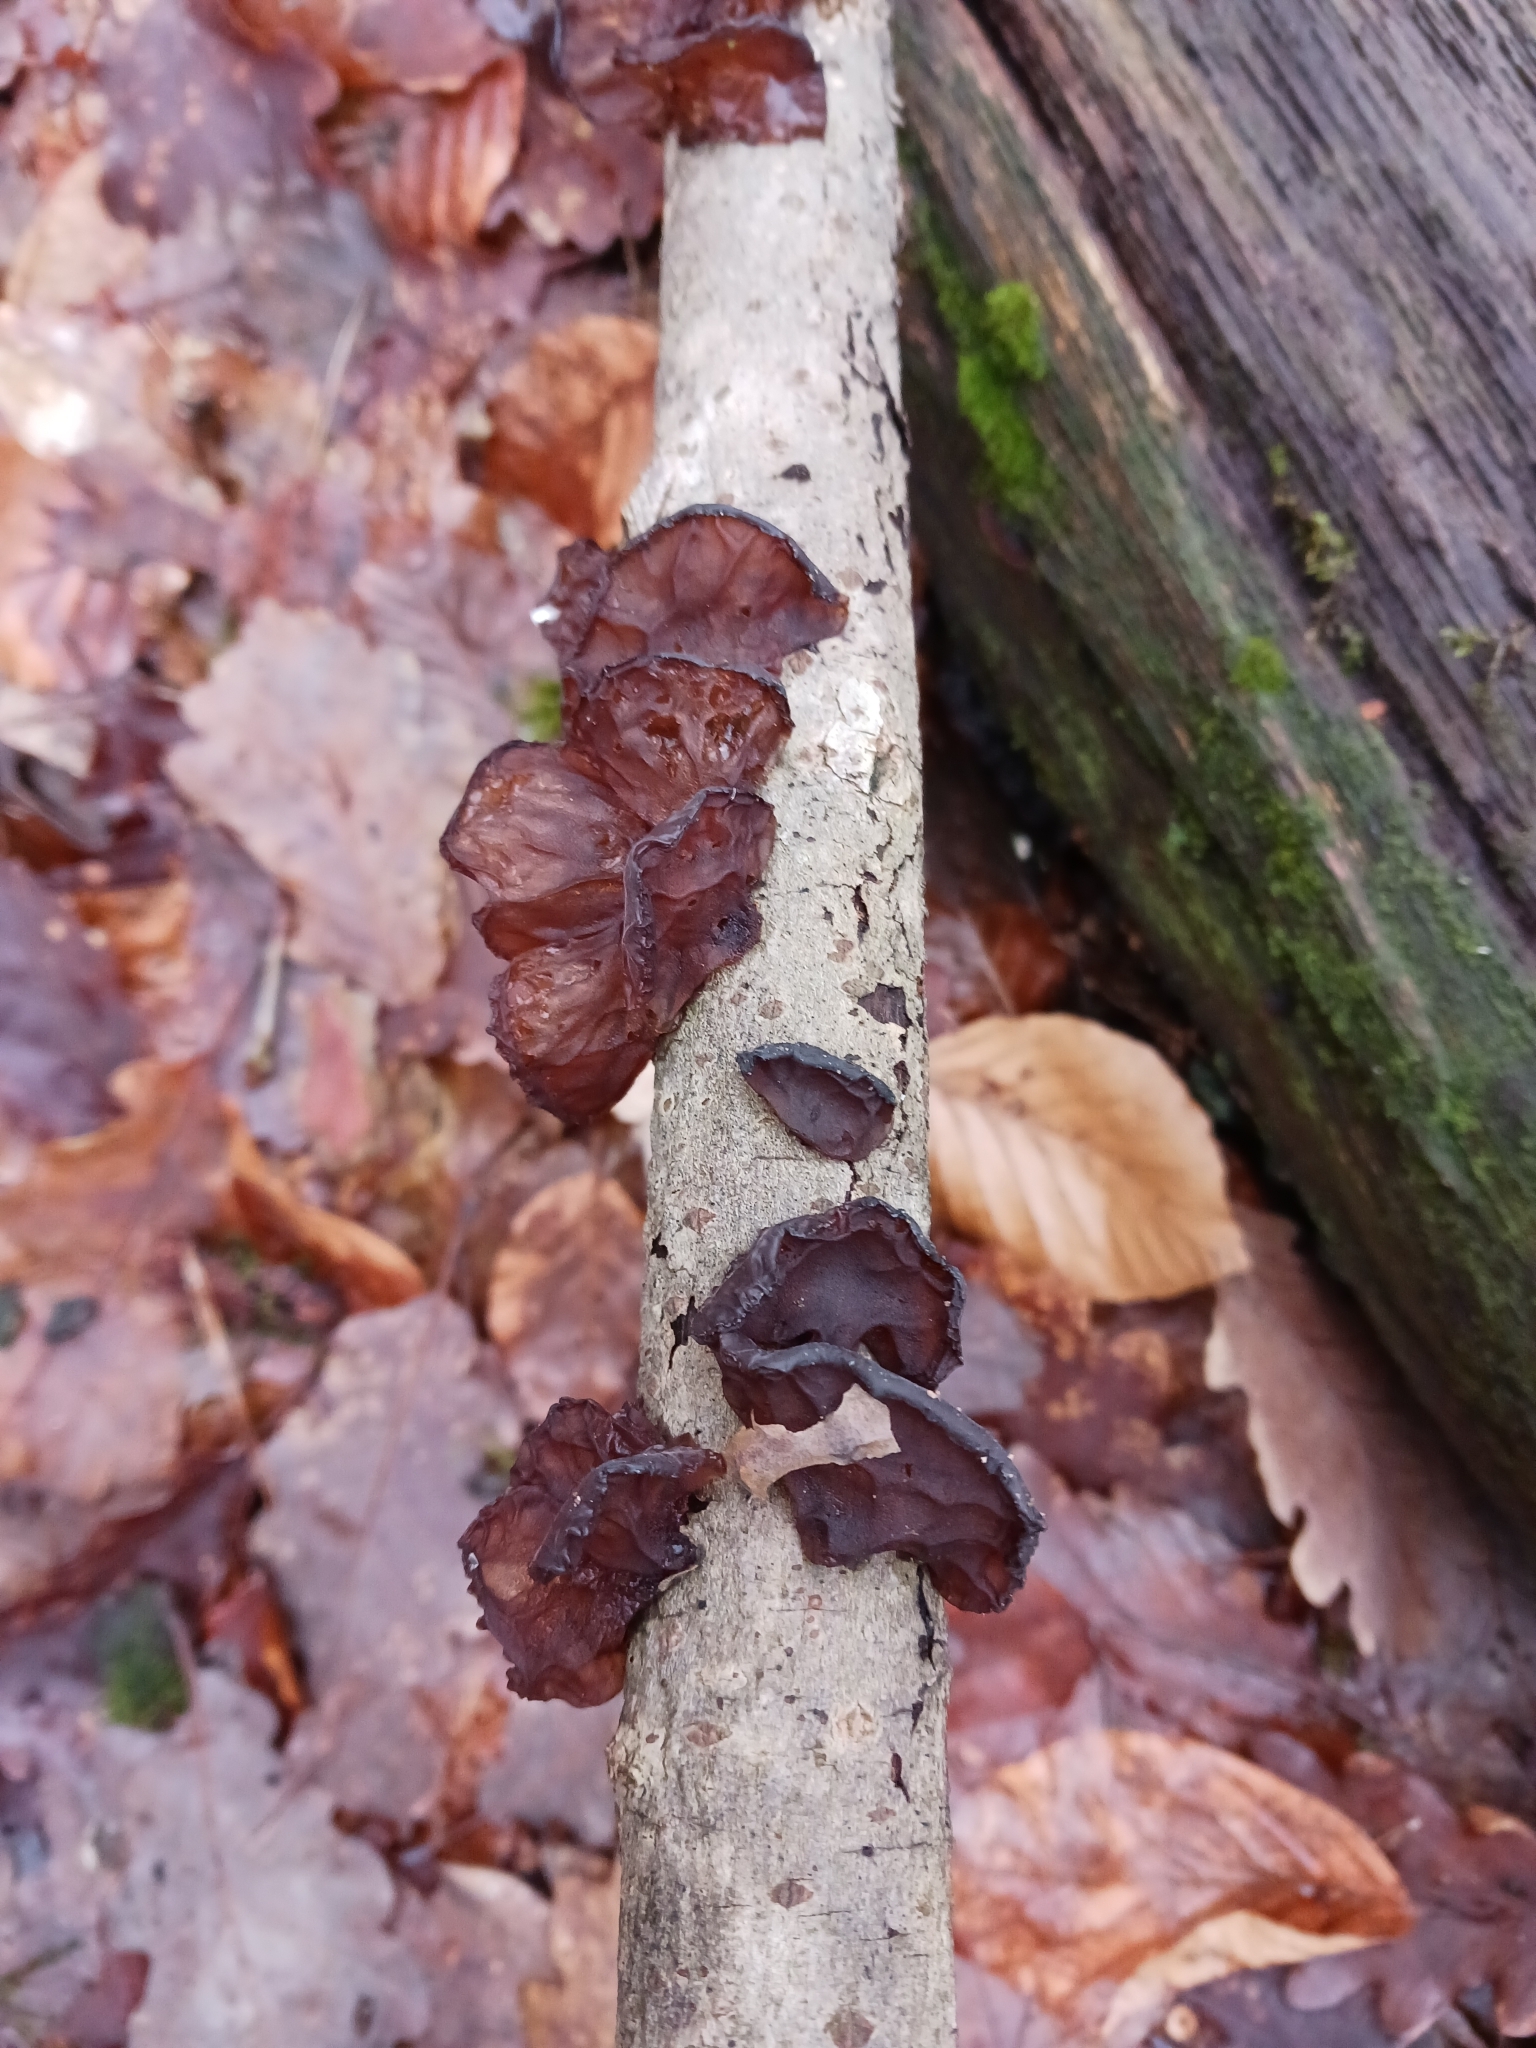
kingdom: Fungi
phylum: Basidiomycota
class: Agaricomycetes
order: Auriculariales
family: Auriculariaceae
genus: Exidia
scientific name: Exidia recisa
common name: Amber jelly
